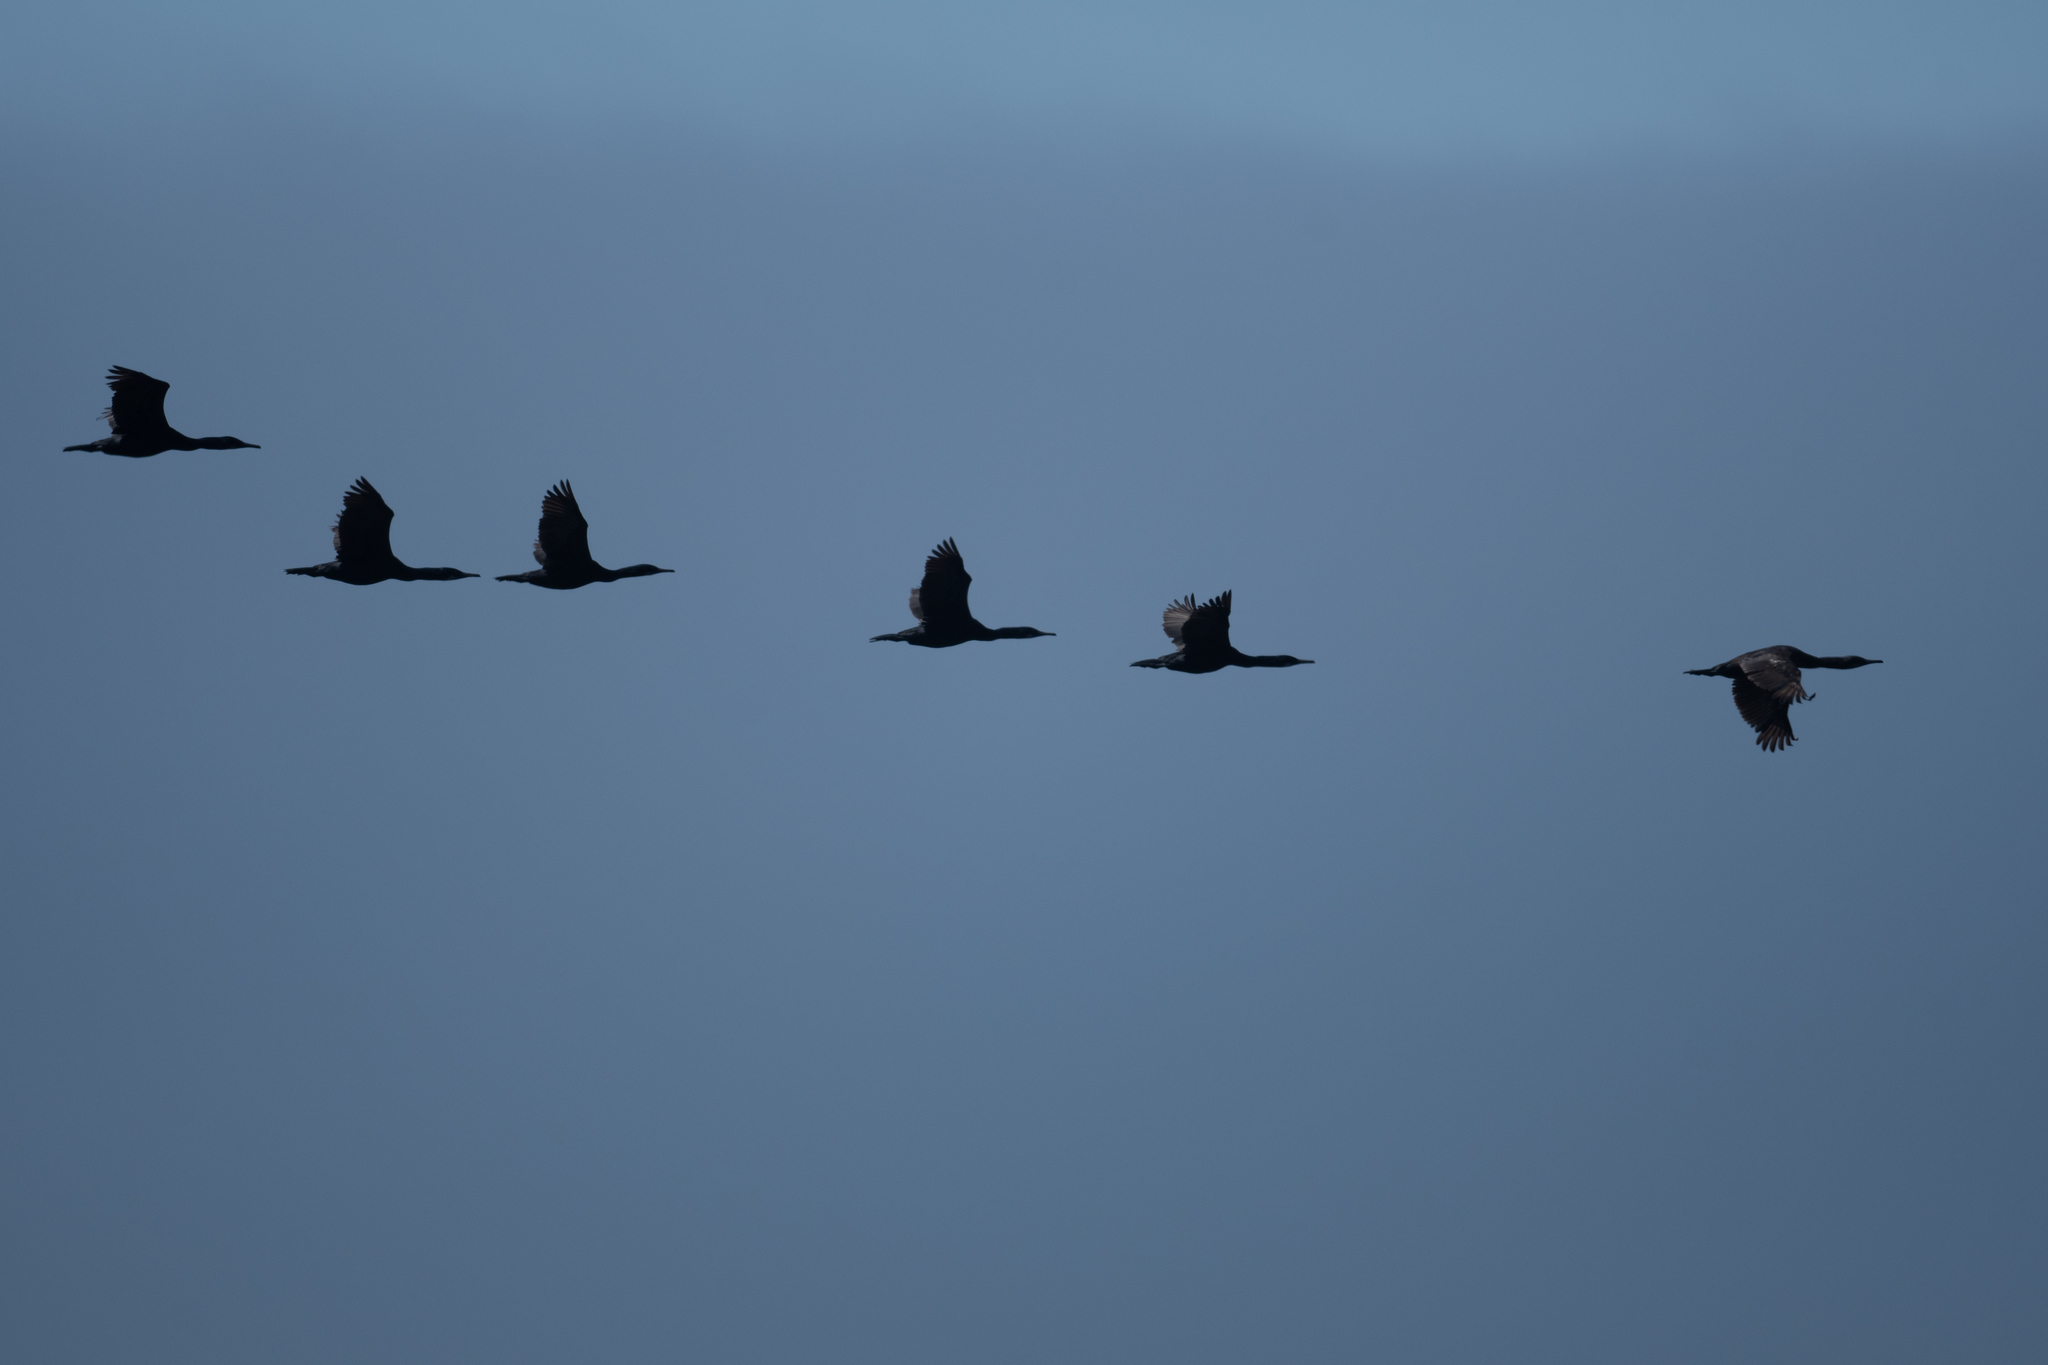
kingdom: Animalia
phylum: Chordata
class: Aves
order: Suliformes
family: Phalacrocoracidae
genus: Urile
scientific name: Urile penicillatus
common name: Brandt's cormorant
